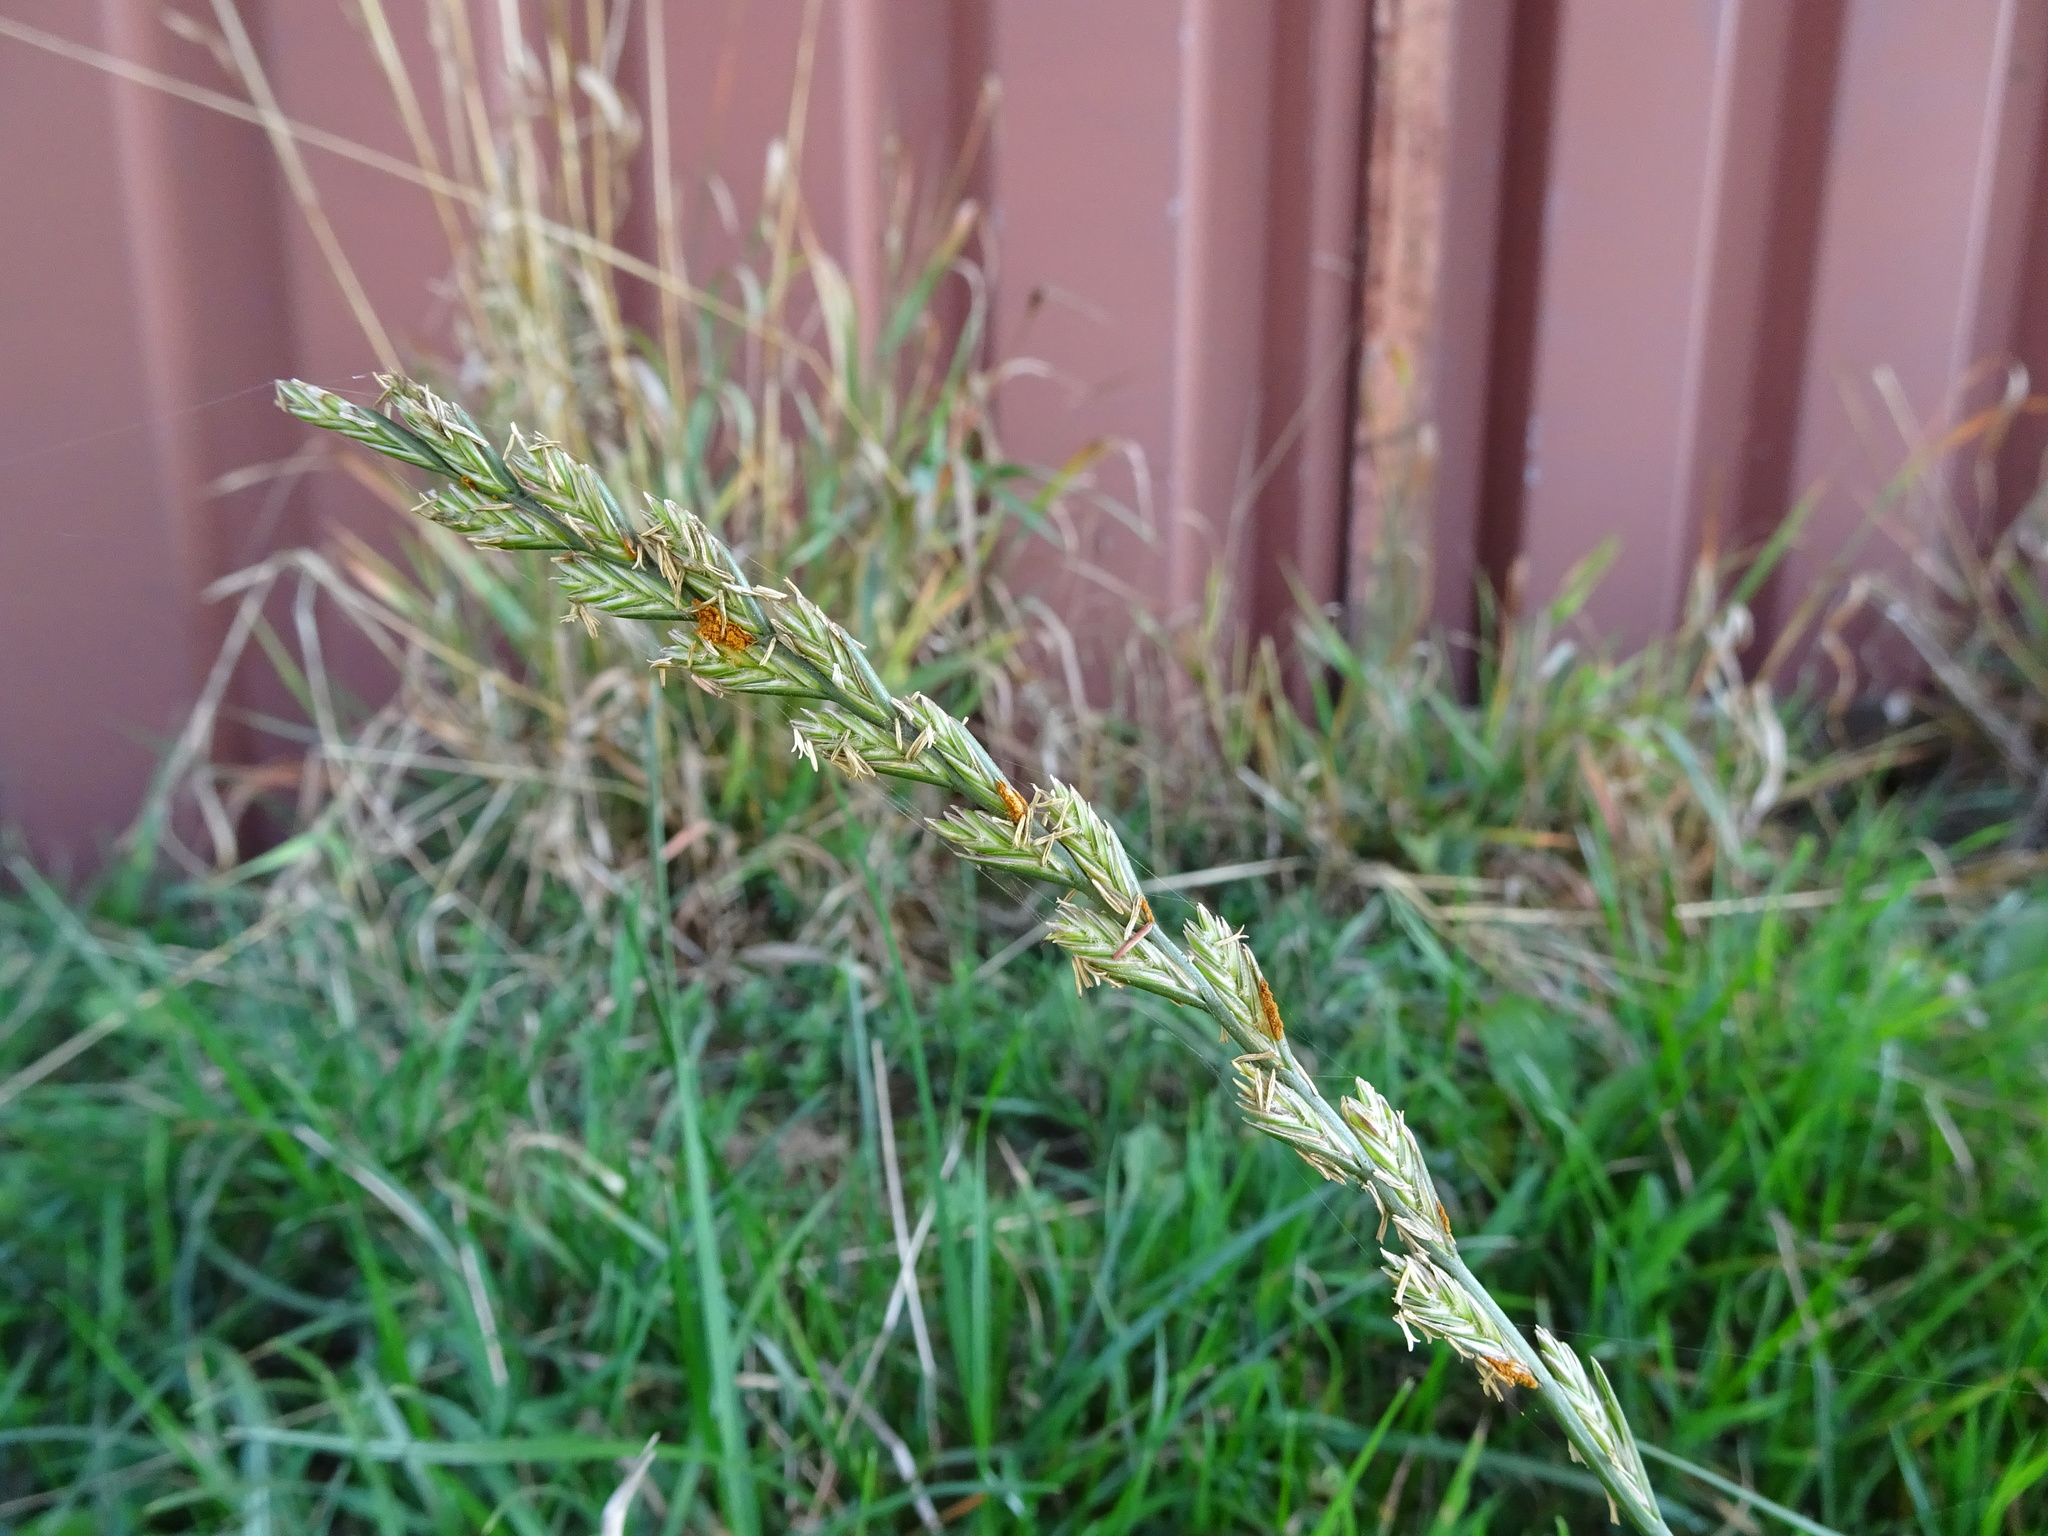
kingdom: Plantae
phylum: Tracheophyta
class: Liliopsida
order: Poales
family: Poaceae
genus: Lolium
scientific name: Lolium perenne
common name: Perennial ryegrass
